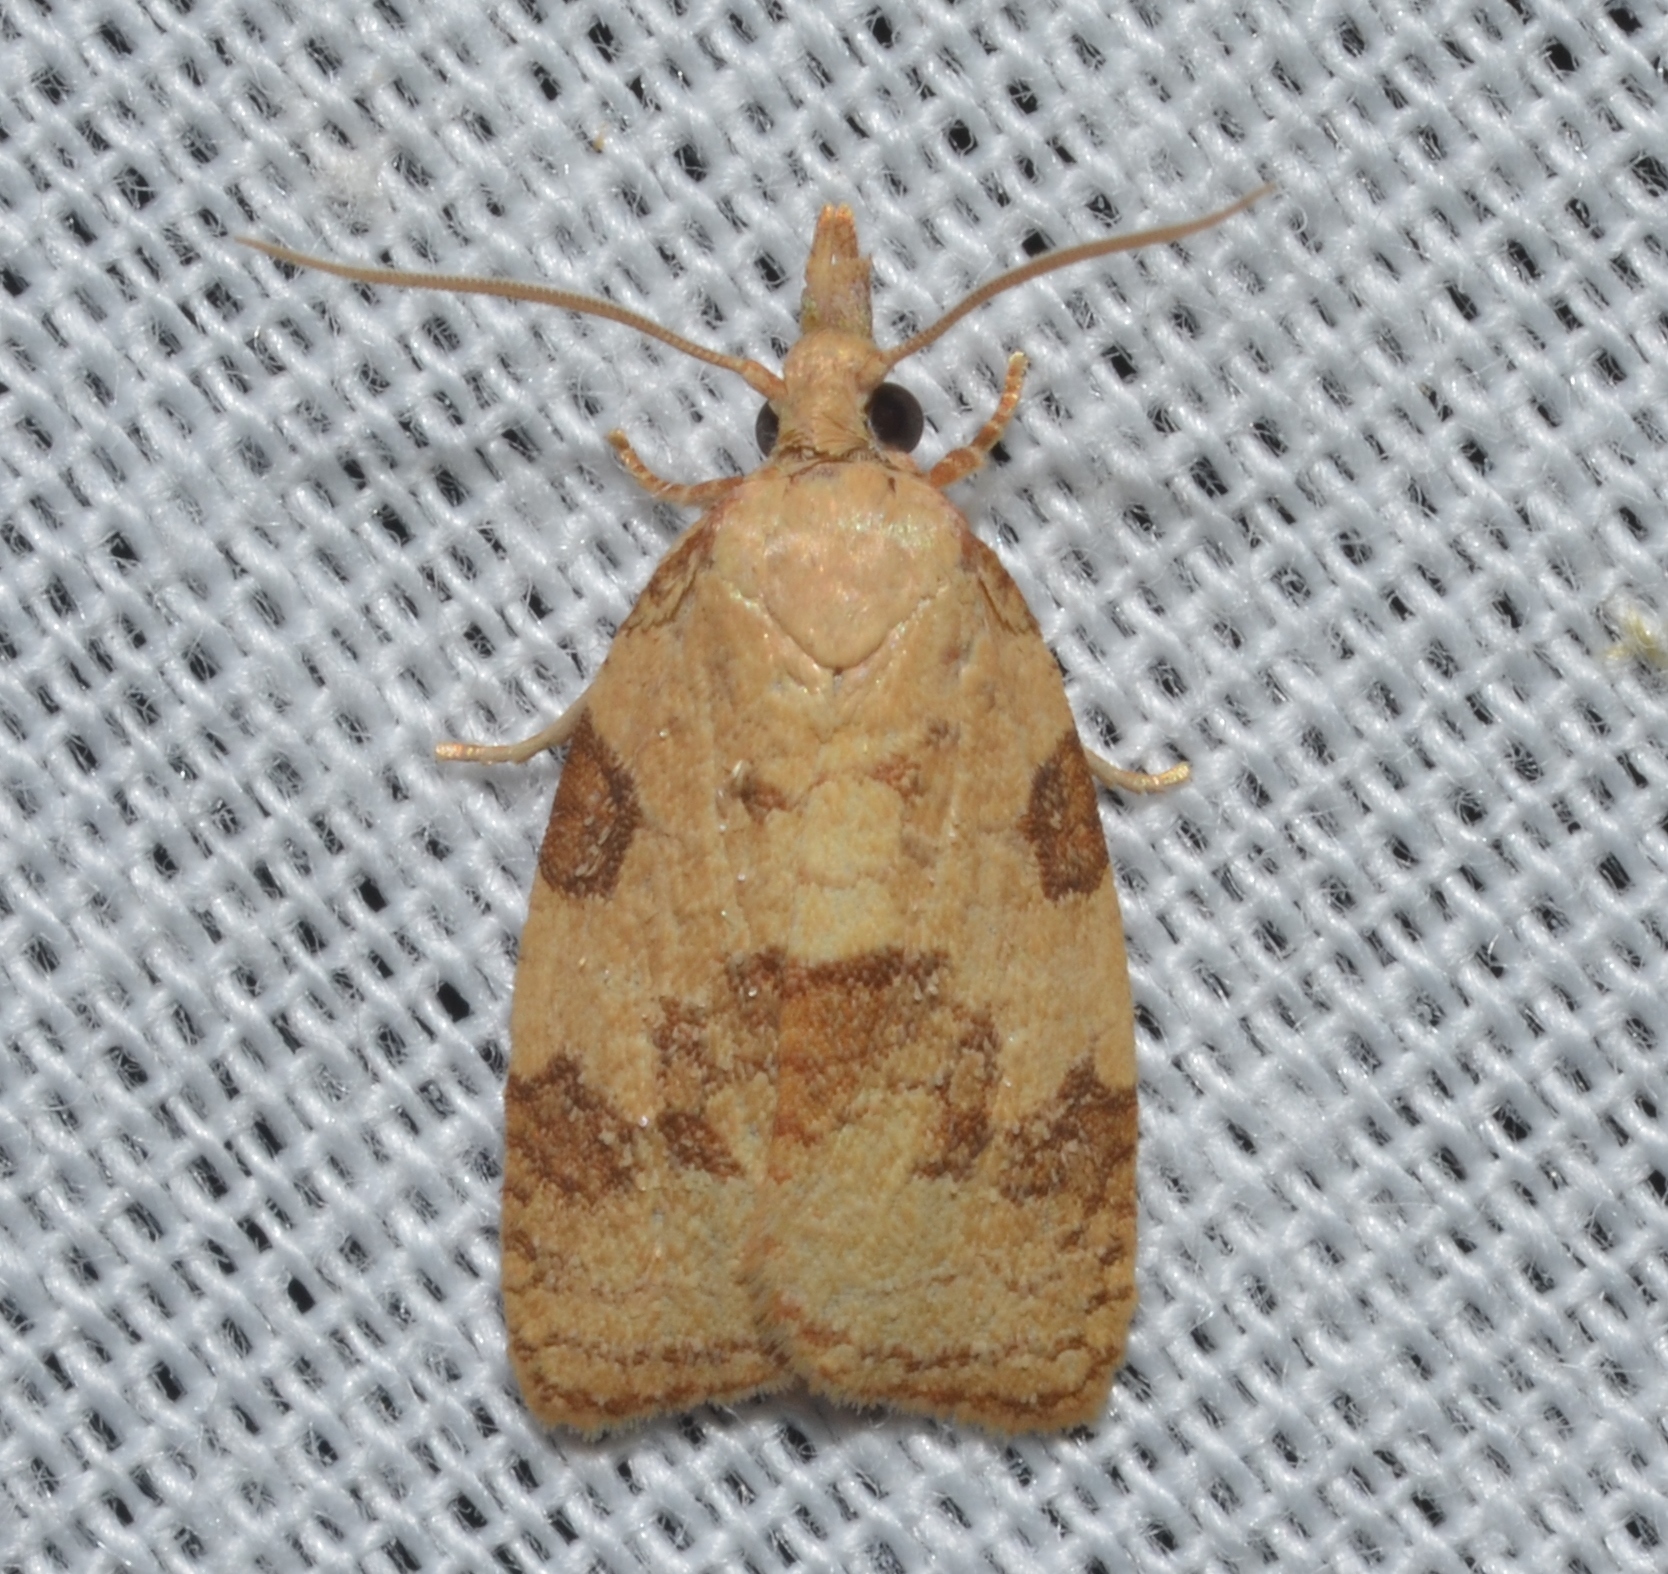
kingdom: Animalia
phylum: Arthropoda
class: Insecta
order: Lepidoptera
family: Tortricidae
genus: Cenopis
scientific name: Cenopis saracana
